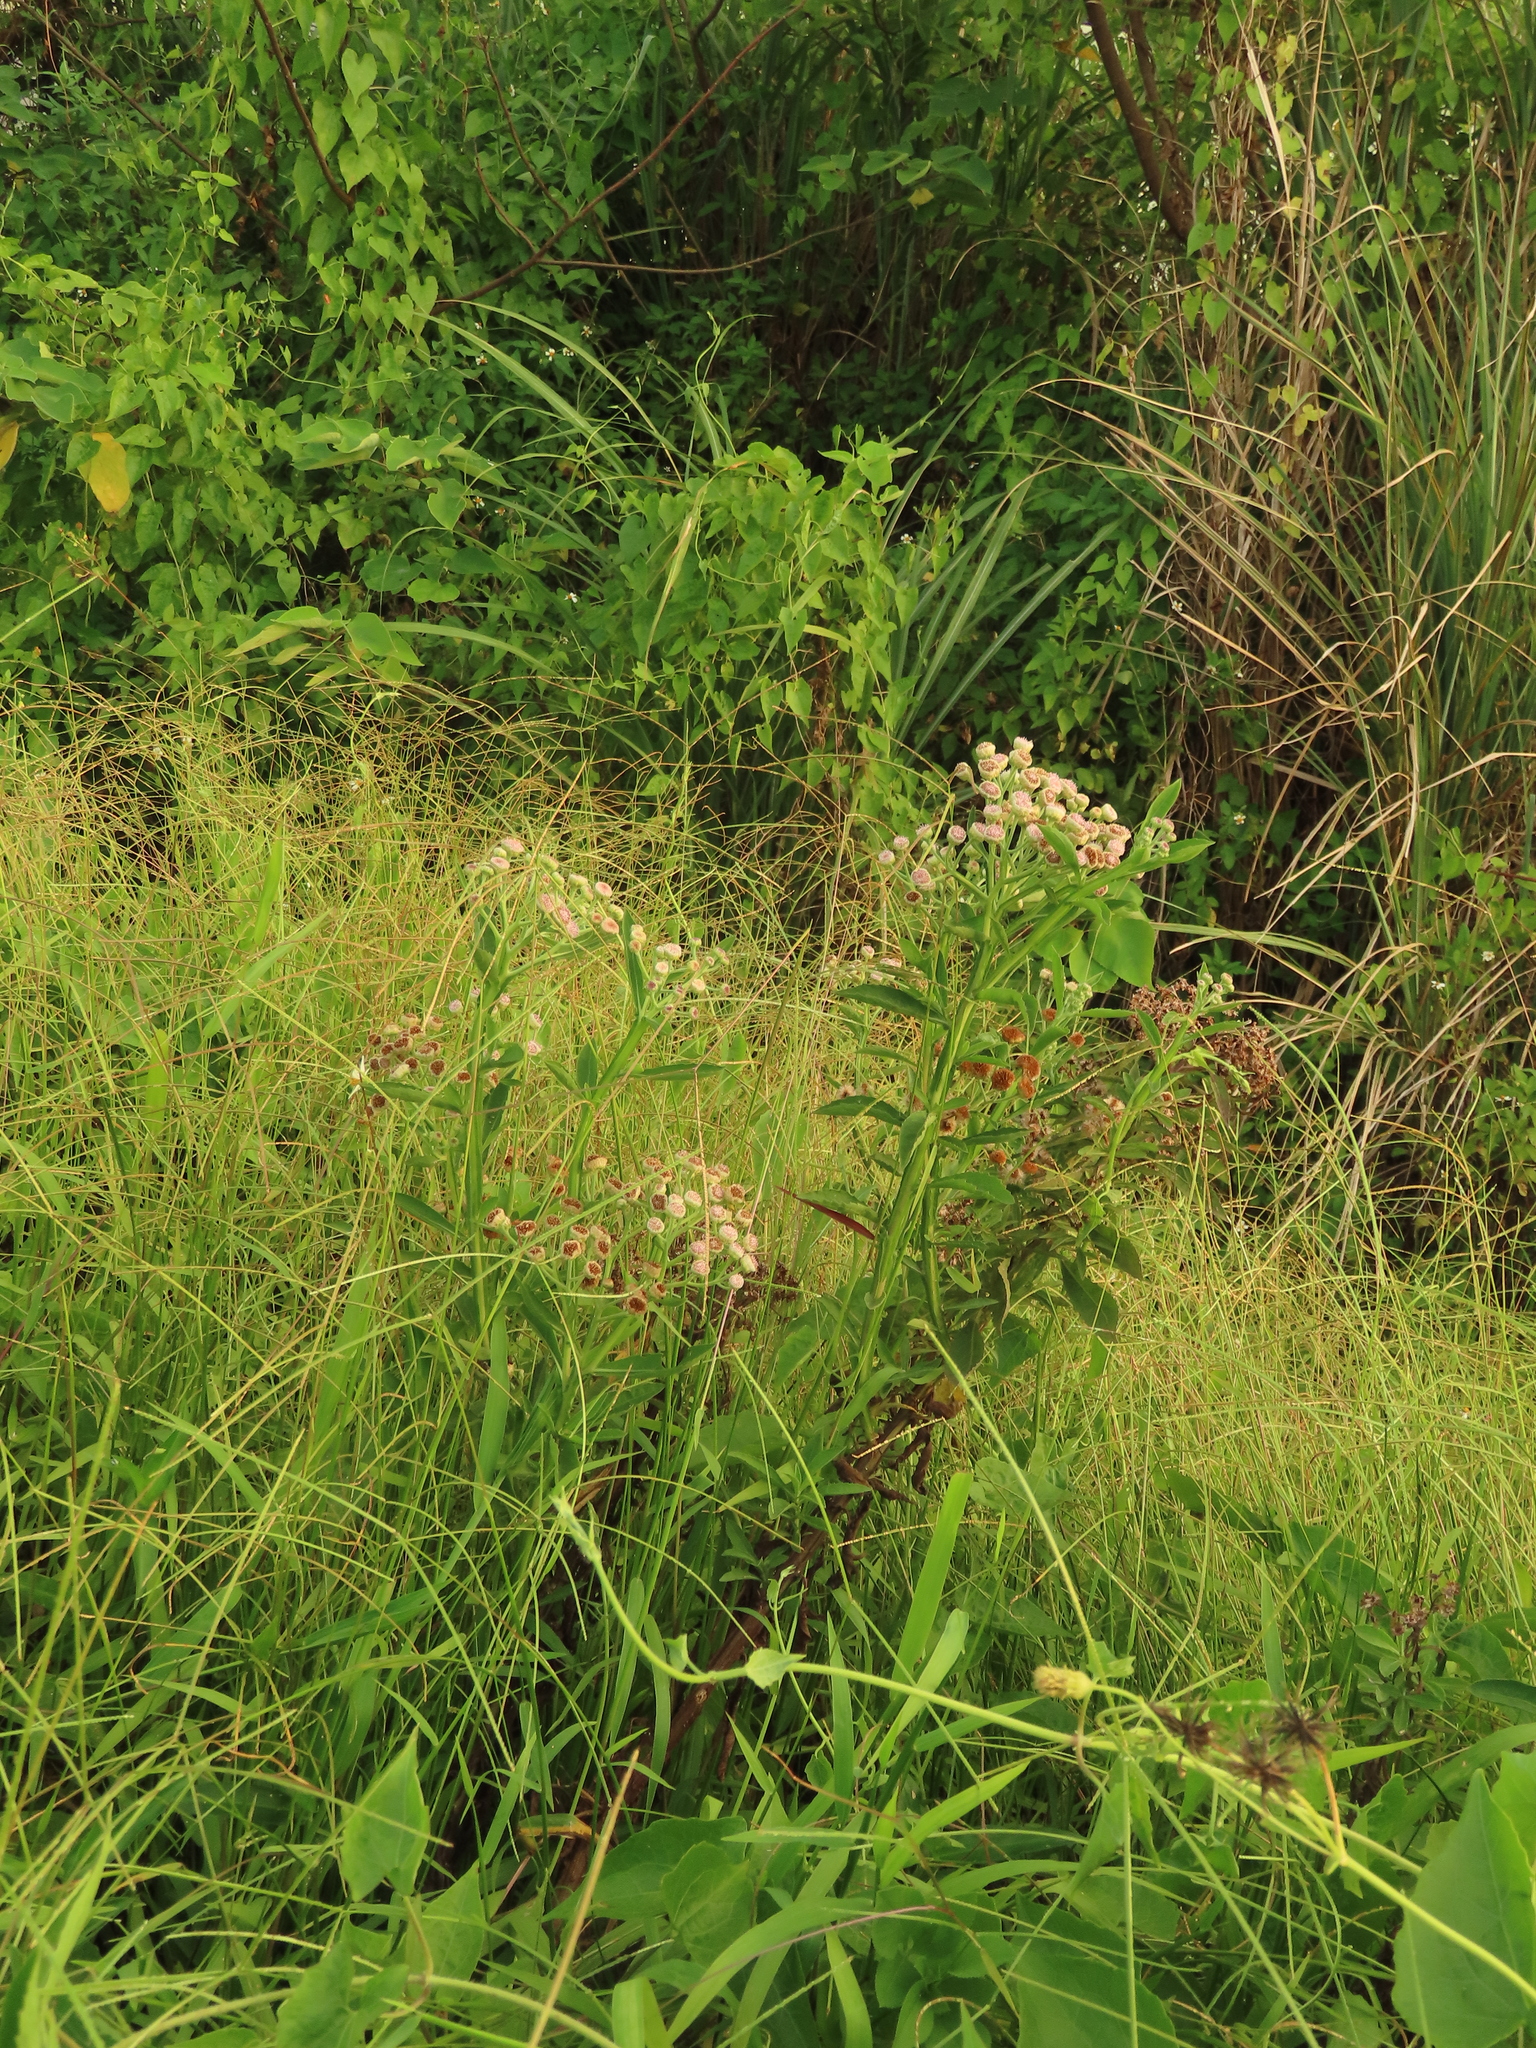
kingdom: Plantae
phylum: Tracheophyta
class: Magnoliopsida
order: Asterales
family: Asteraceae
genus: Pluchea
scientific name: Pluchea sagittalis
